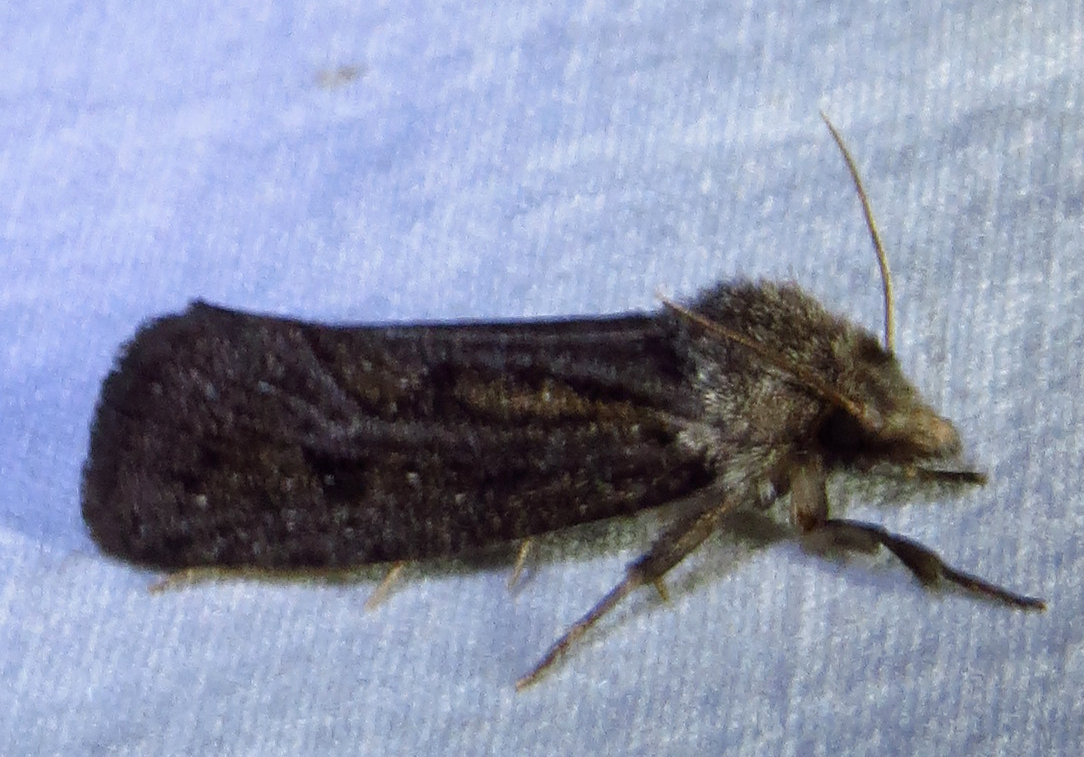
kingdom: Animalia
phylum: Arthropoda
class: Insecta
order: Lepidoptera
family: Tineidae
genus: Acrolophus
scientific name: Acrolophus popeanella
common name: Clemens' grass tubeworm moth
